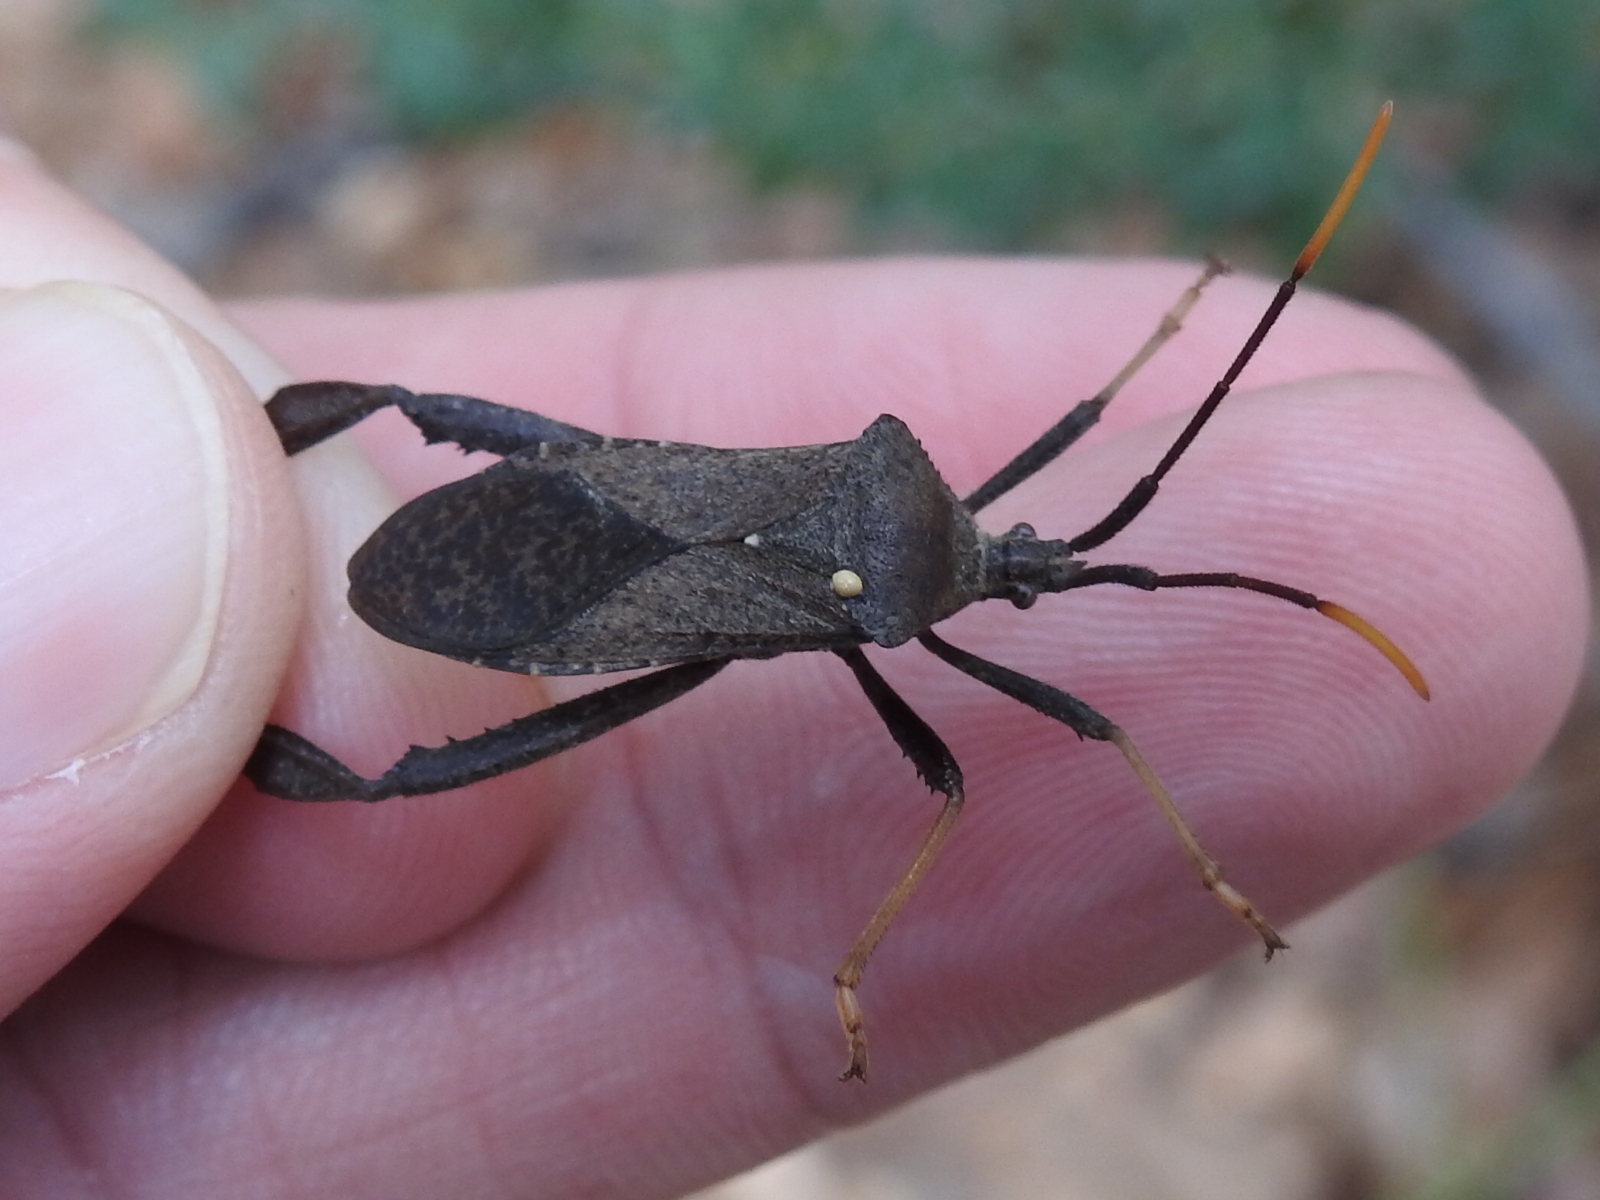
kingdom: Animalia
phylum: Arthropoda
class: Insecta
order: Hemiptera
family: Coreidae
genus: Acanthocephala
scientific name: Acanthocephala terminalis
